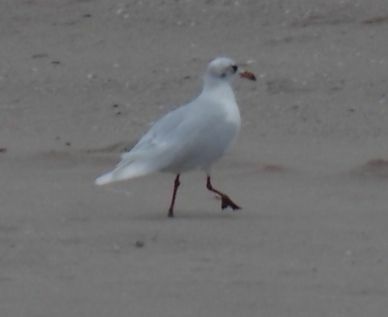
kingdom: Animalia
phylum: Chordata
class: Aves
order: Charadriiformes
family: Laridae
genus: Ichthyaetus
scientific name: Ichthyaetus melanocephalus
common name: Mediterranean gull
